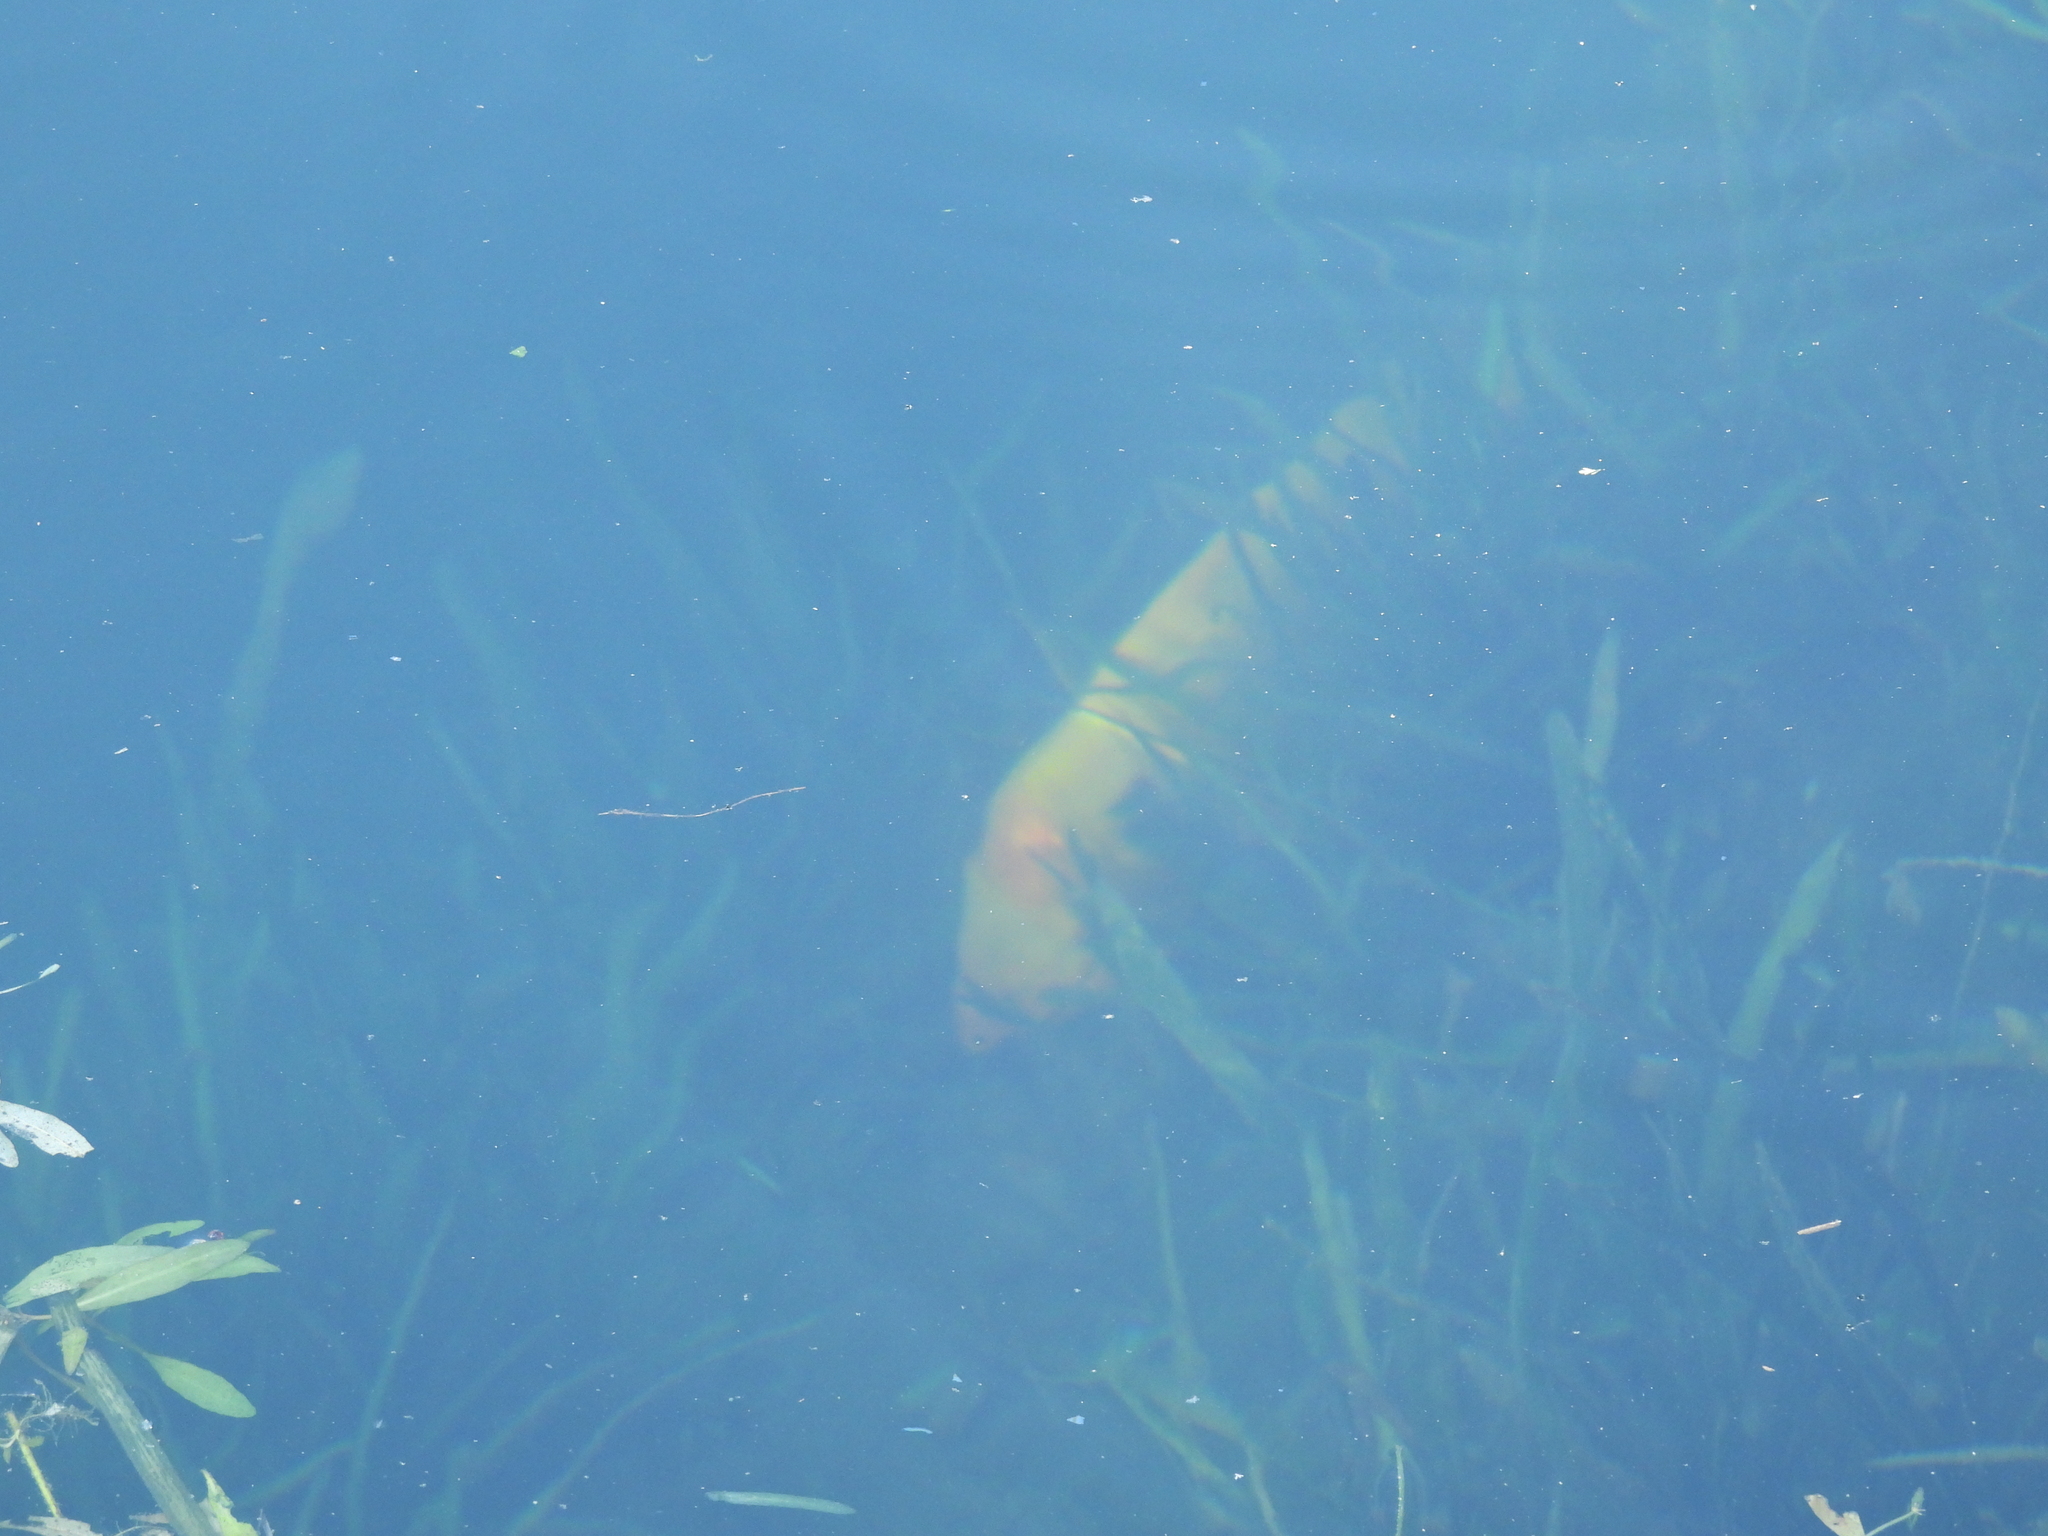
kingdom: Animalia
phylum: Chordata
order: Perciformes
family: Cichlidae
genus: Amphilophus
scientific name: Amphilophus citrinellus
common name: Midas cichlid
